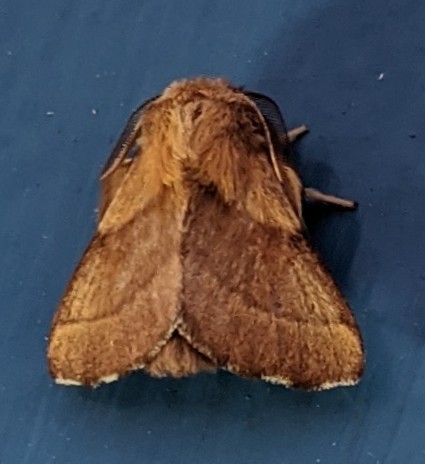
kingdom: Animalia
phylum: Arthropoda
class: Insecta
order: Lepidoptera
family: Lasiocampidae
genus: Malacosoma
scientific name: Malacosoma disstria
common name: Forest tent caterpillar
